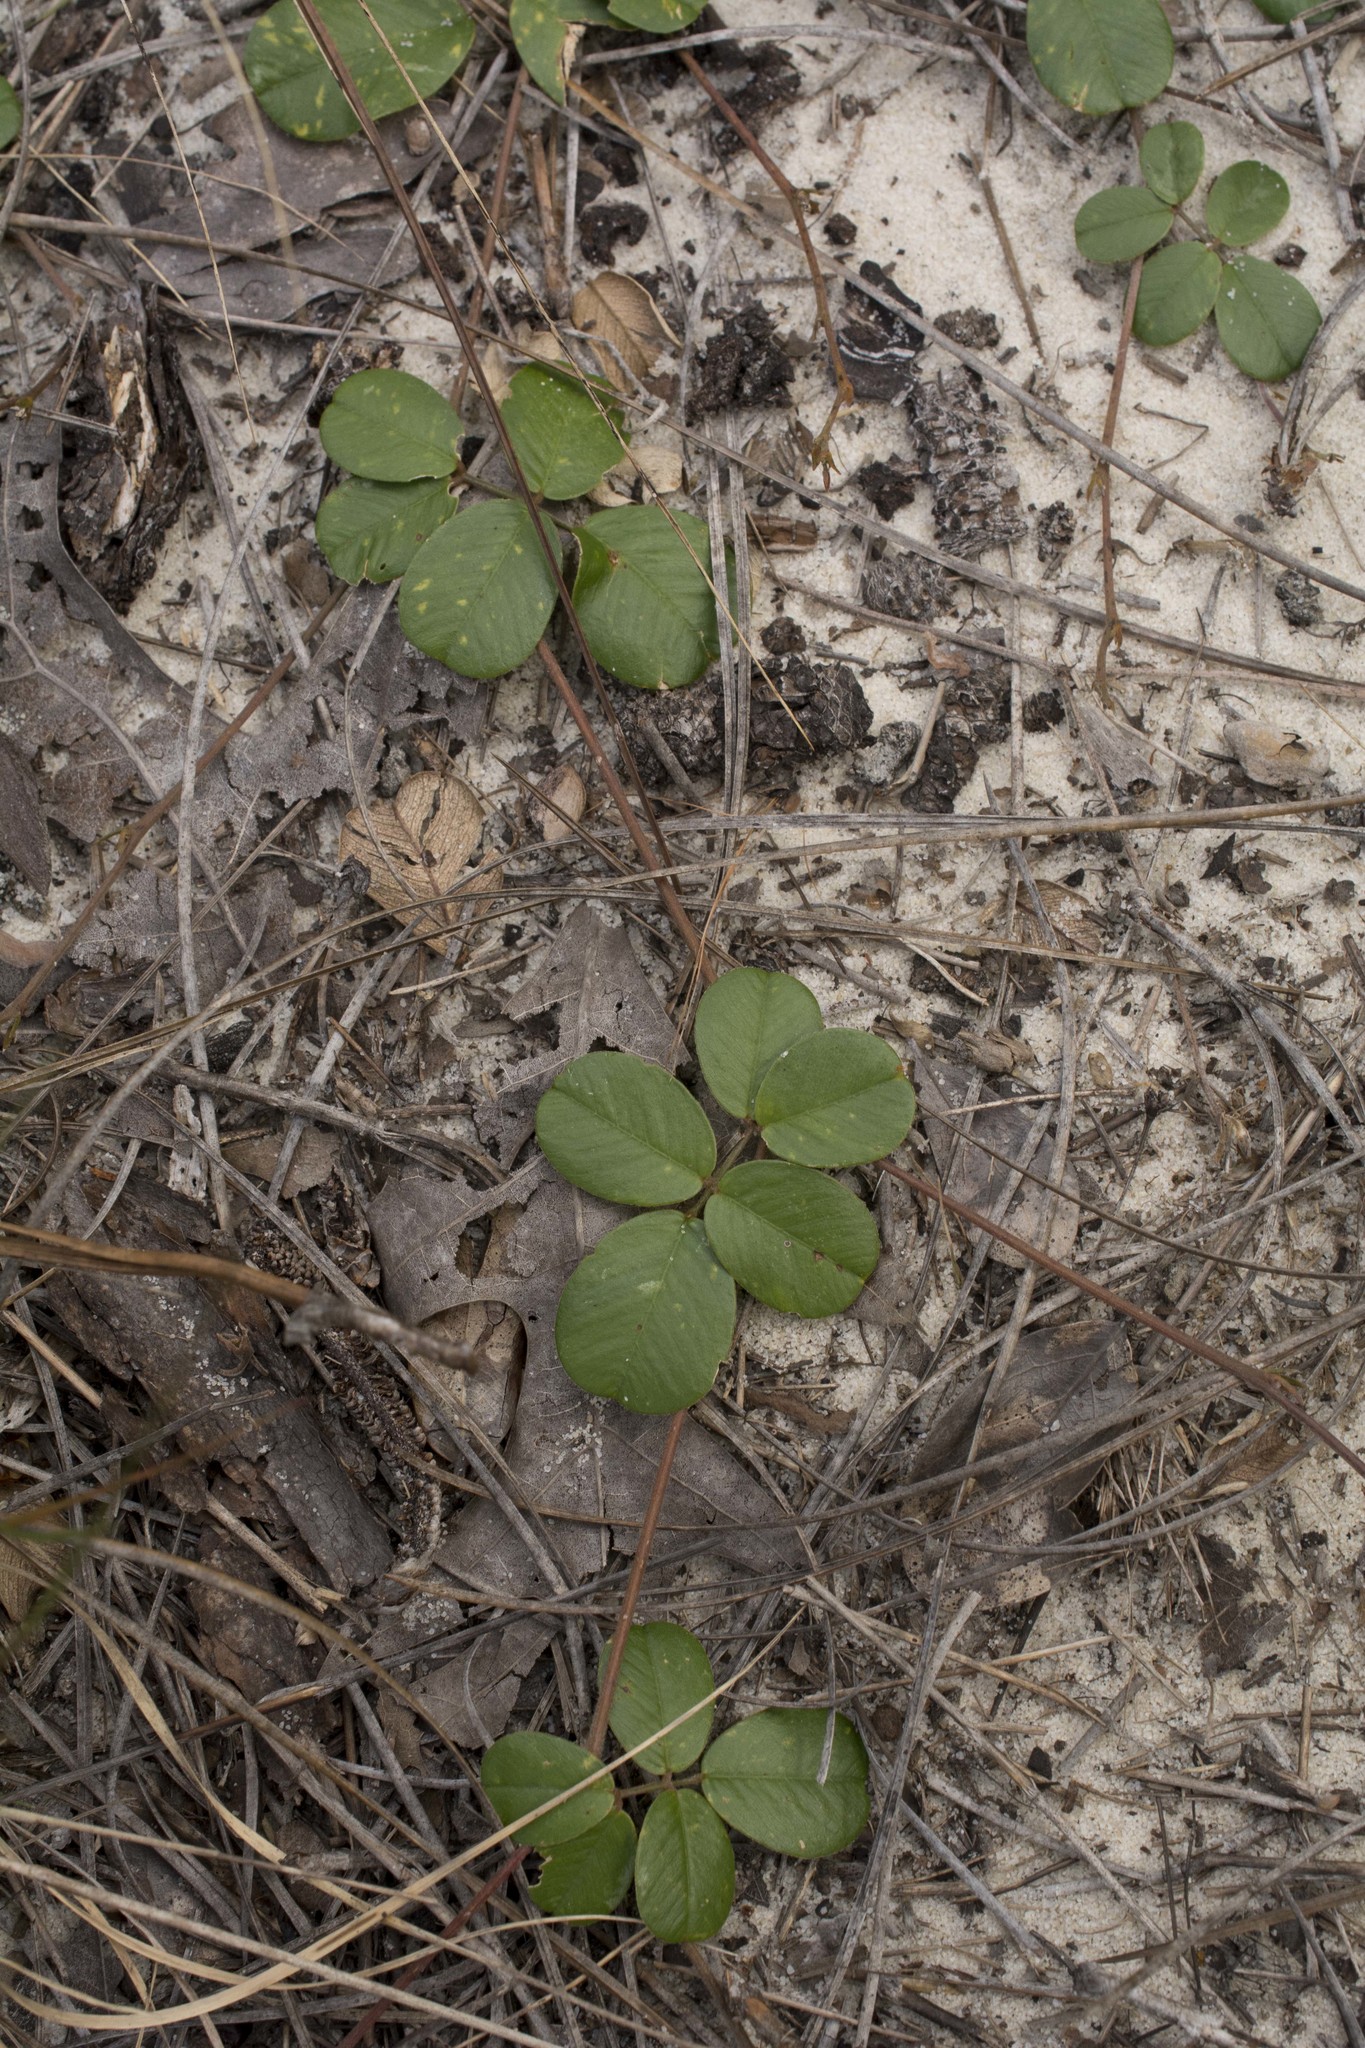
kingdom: Plantae
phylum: Tracheophyta
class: Magnoliopsida
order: Fabales
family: Fabaceae
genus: Tephrosia
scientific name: Tephrosia chrysophylla
